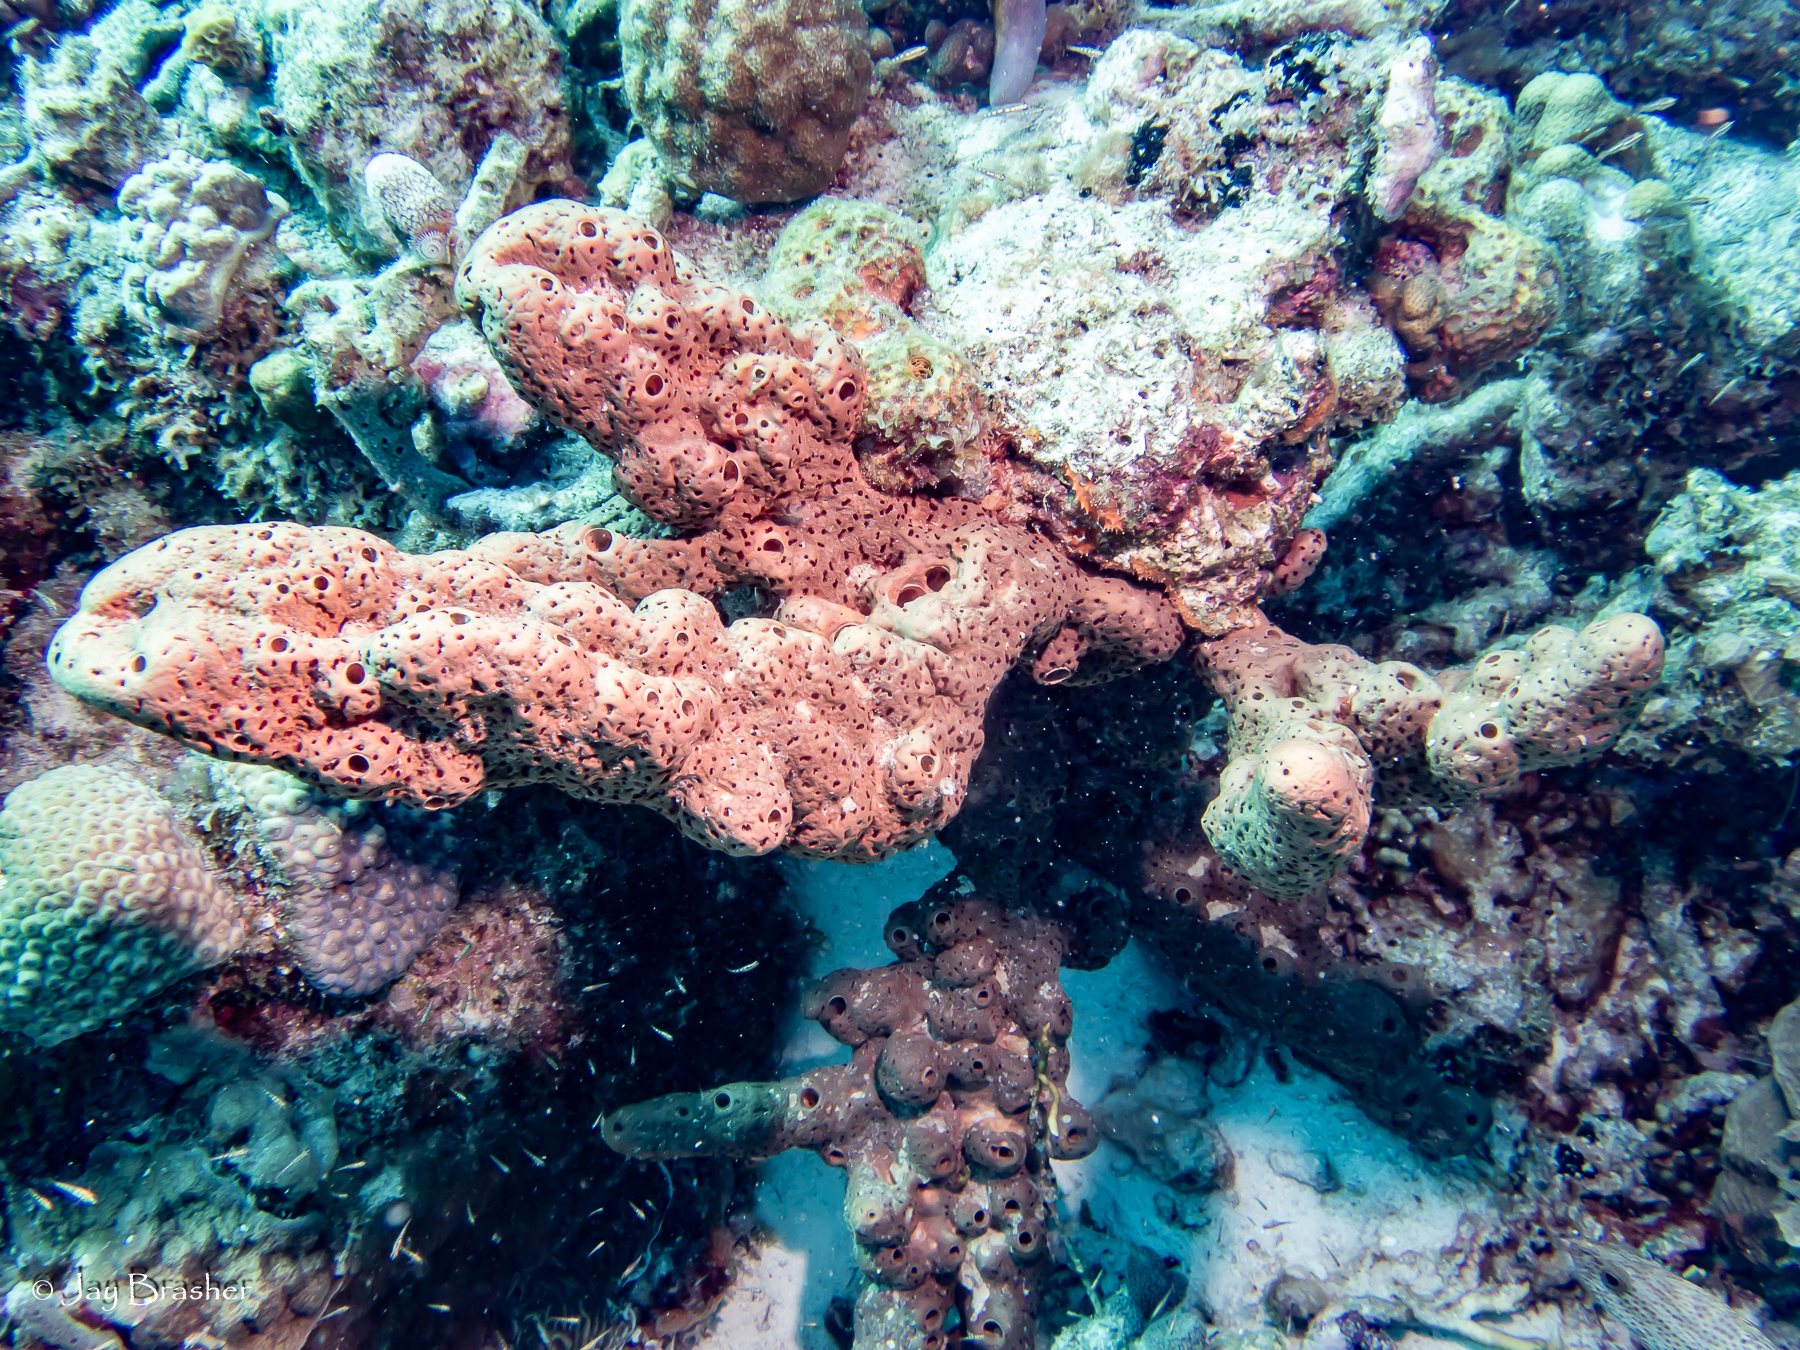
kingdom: Animalia
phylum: Porifera
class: Demospongiae
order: Agelasida
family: Agelasidae
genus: Agelas
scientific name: Agelas conifera
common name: Brown tube sponge
